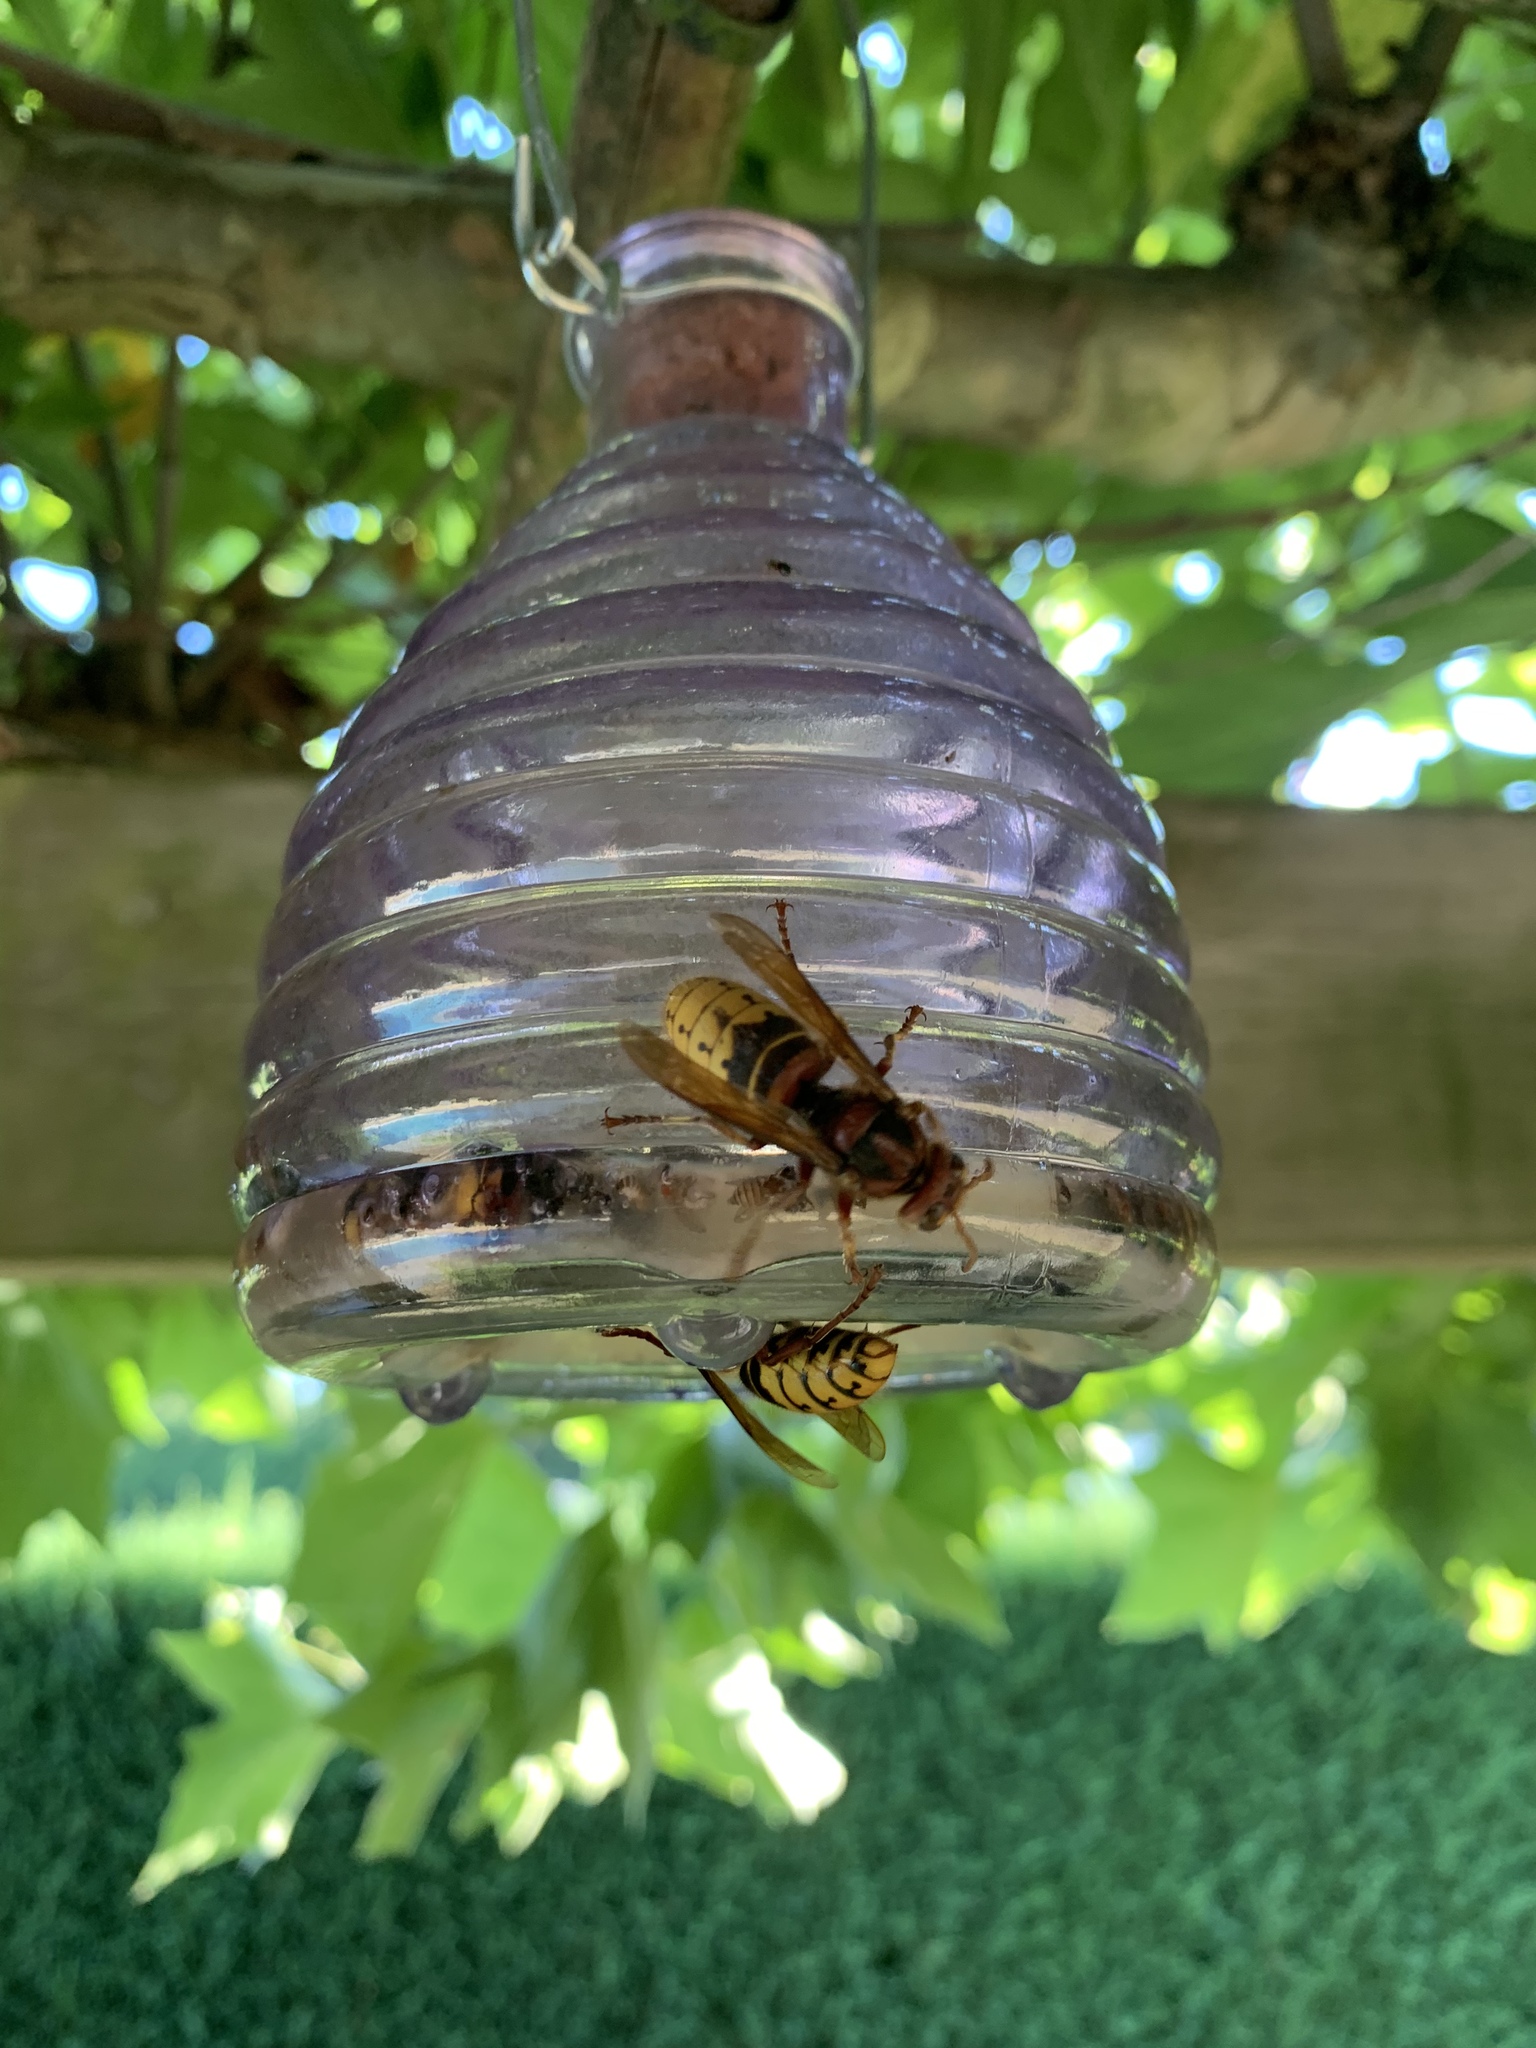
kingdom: Animalia
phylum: Arthropoda
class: Insecta
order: Hymenoptera
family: Vespidae
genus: Vespa
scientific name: Vespa crabro
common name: Hornet
